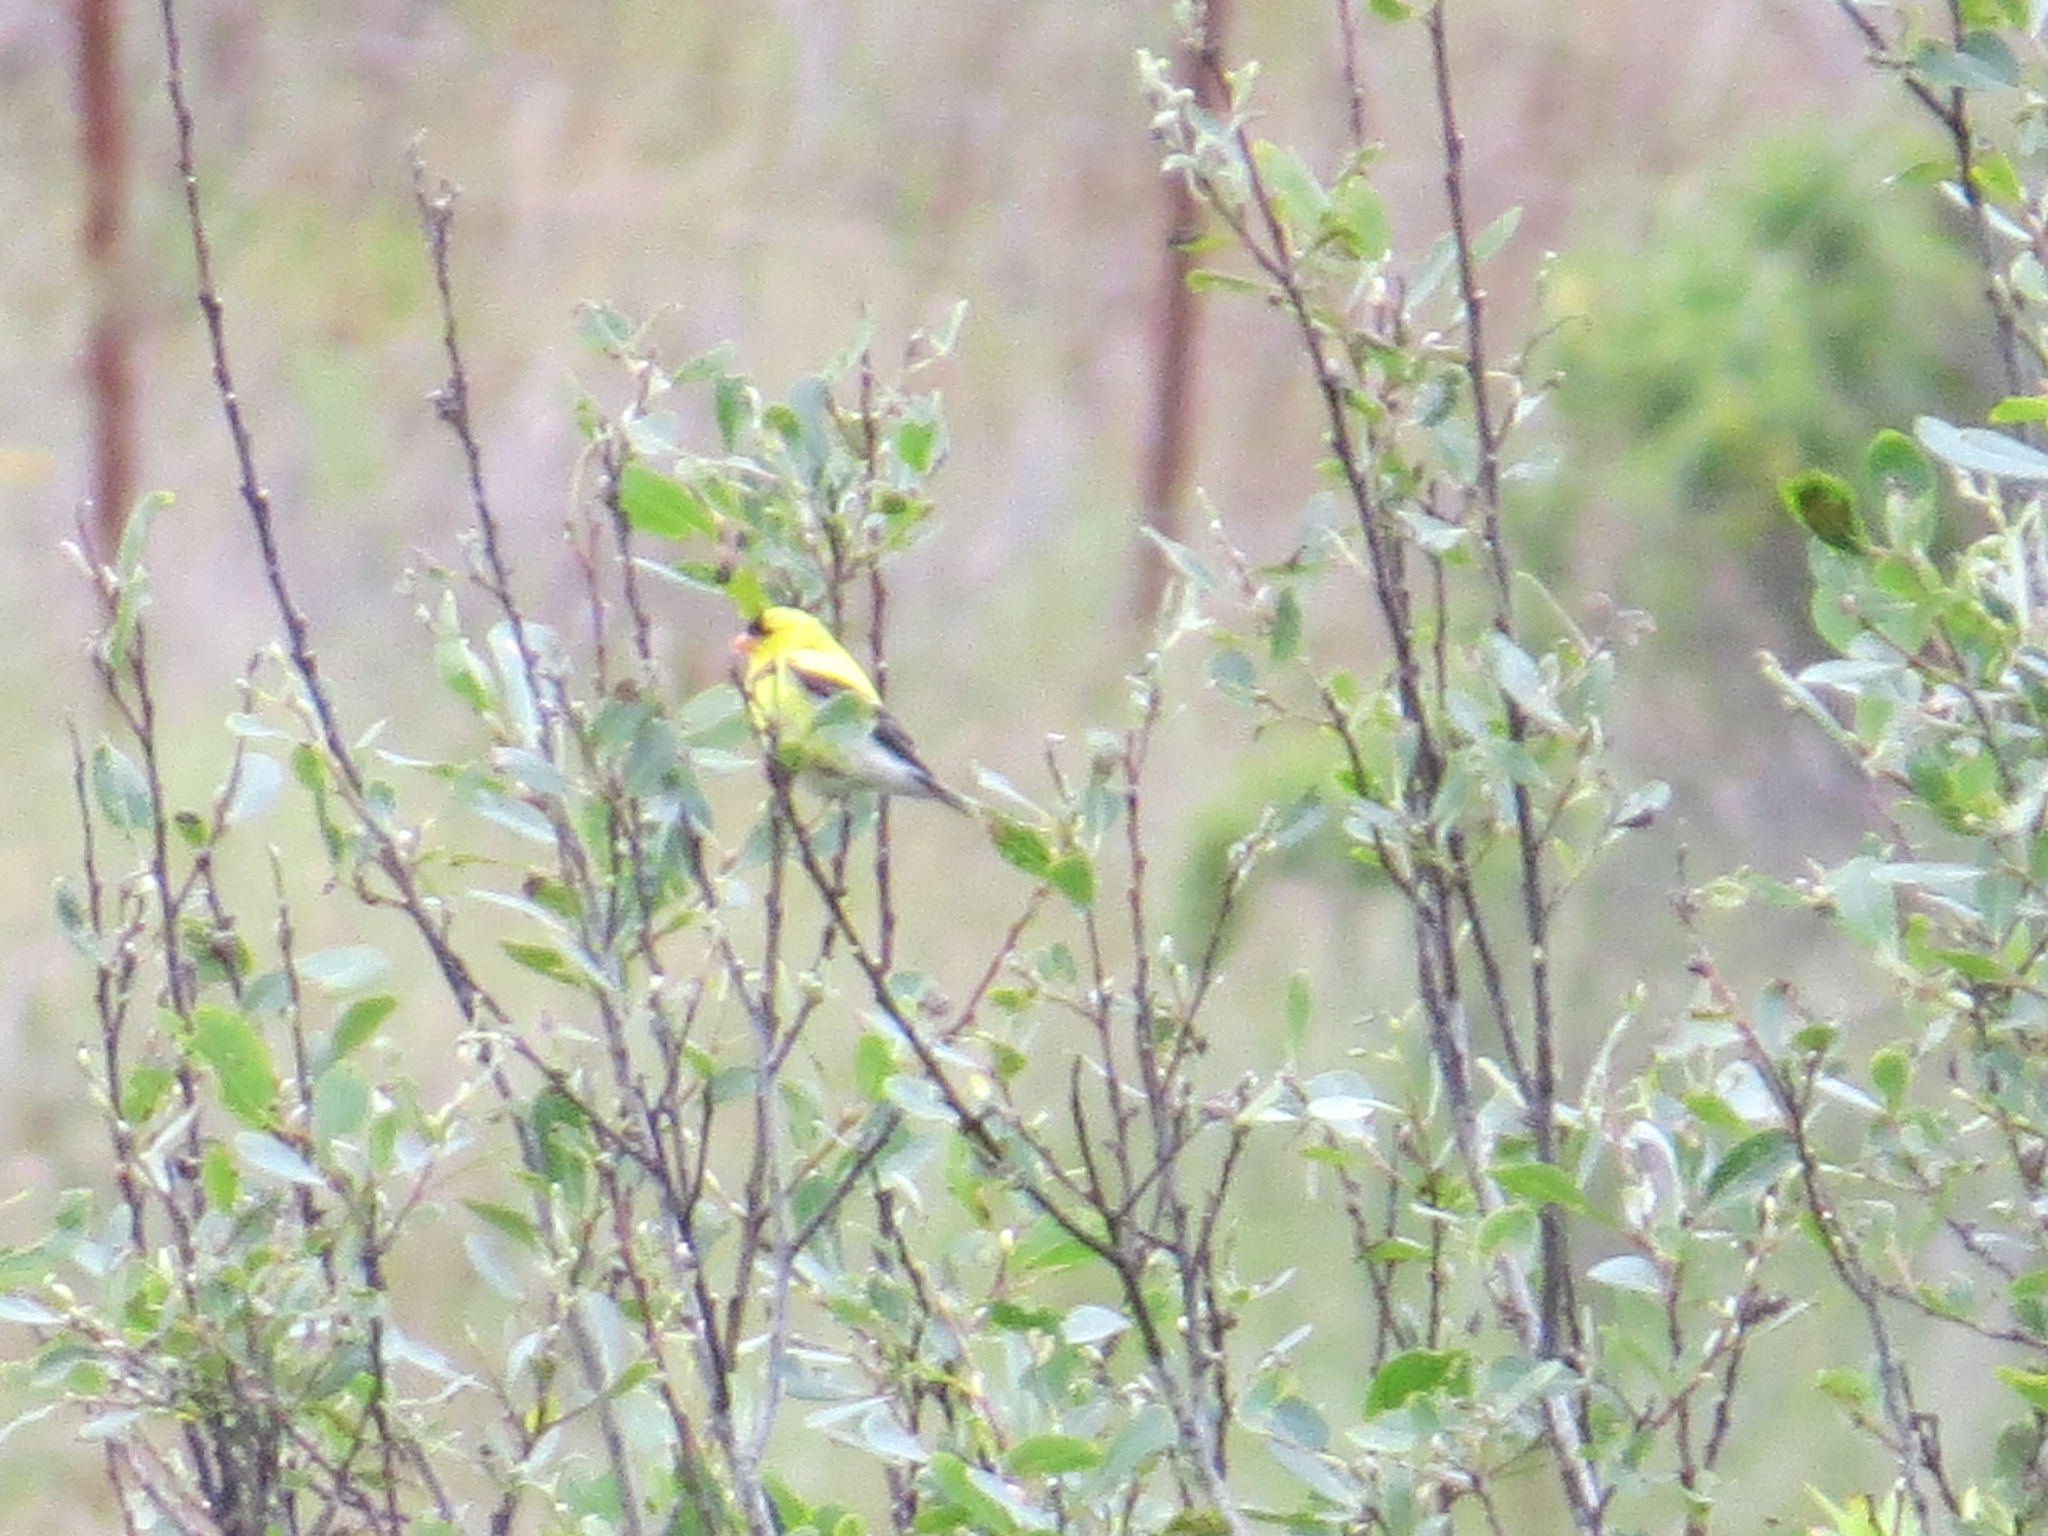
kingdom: Animalia
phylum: Chordata
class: Aves
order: Passeriformes
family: Fringillidae
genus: Spinus
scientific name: Spinus tristis
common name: American goldfinch
